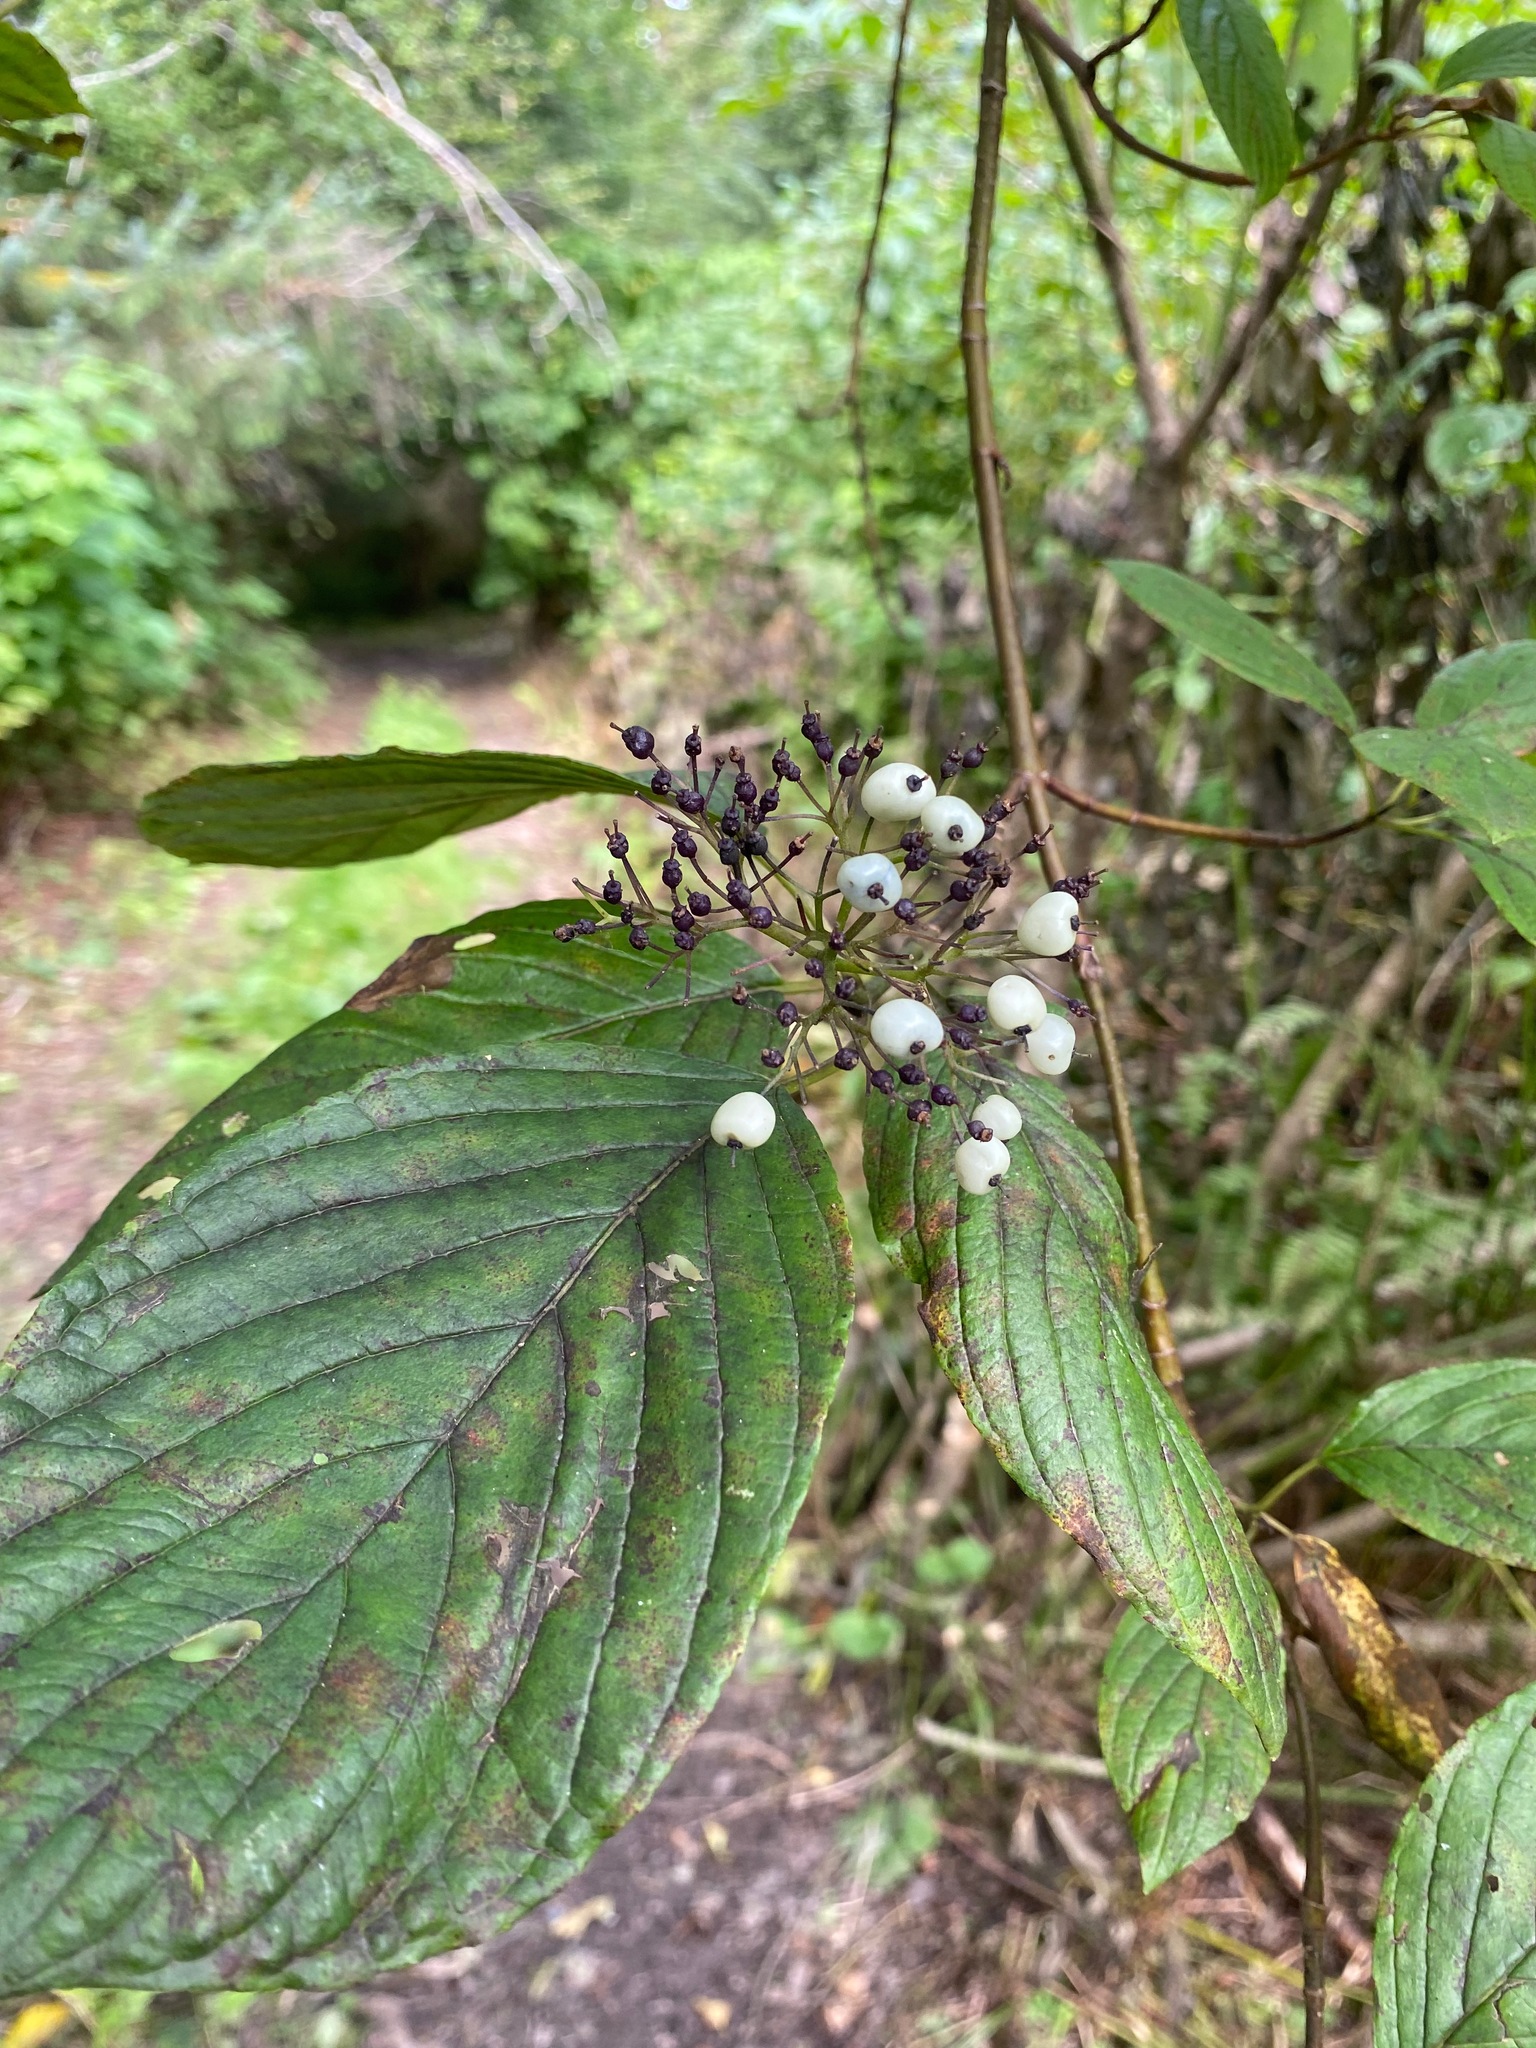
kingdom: Plantae
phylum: Tracheophyta
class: Magnoliopsida
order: Cornales
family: Cornaceae
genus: Cornus
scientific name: Cornus sericea
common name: Red-osier dogwood
